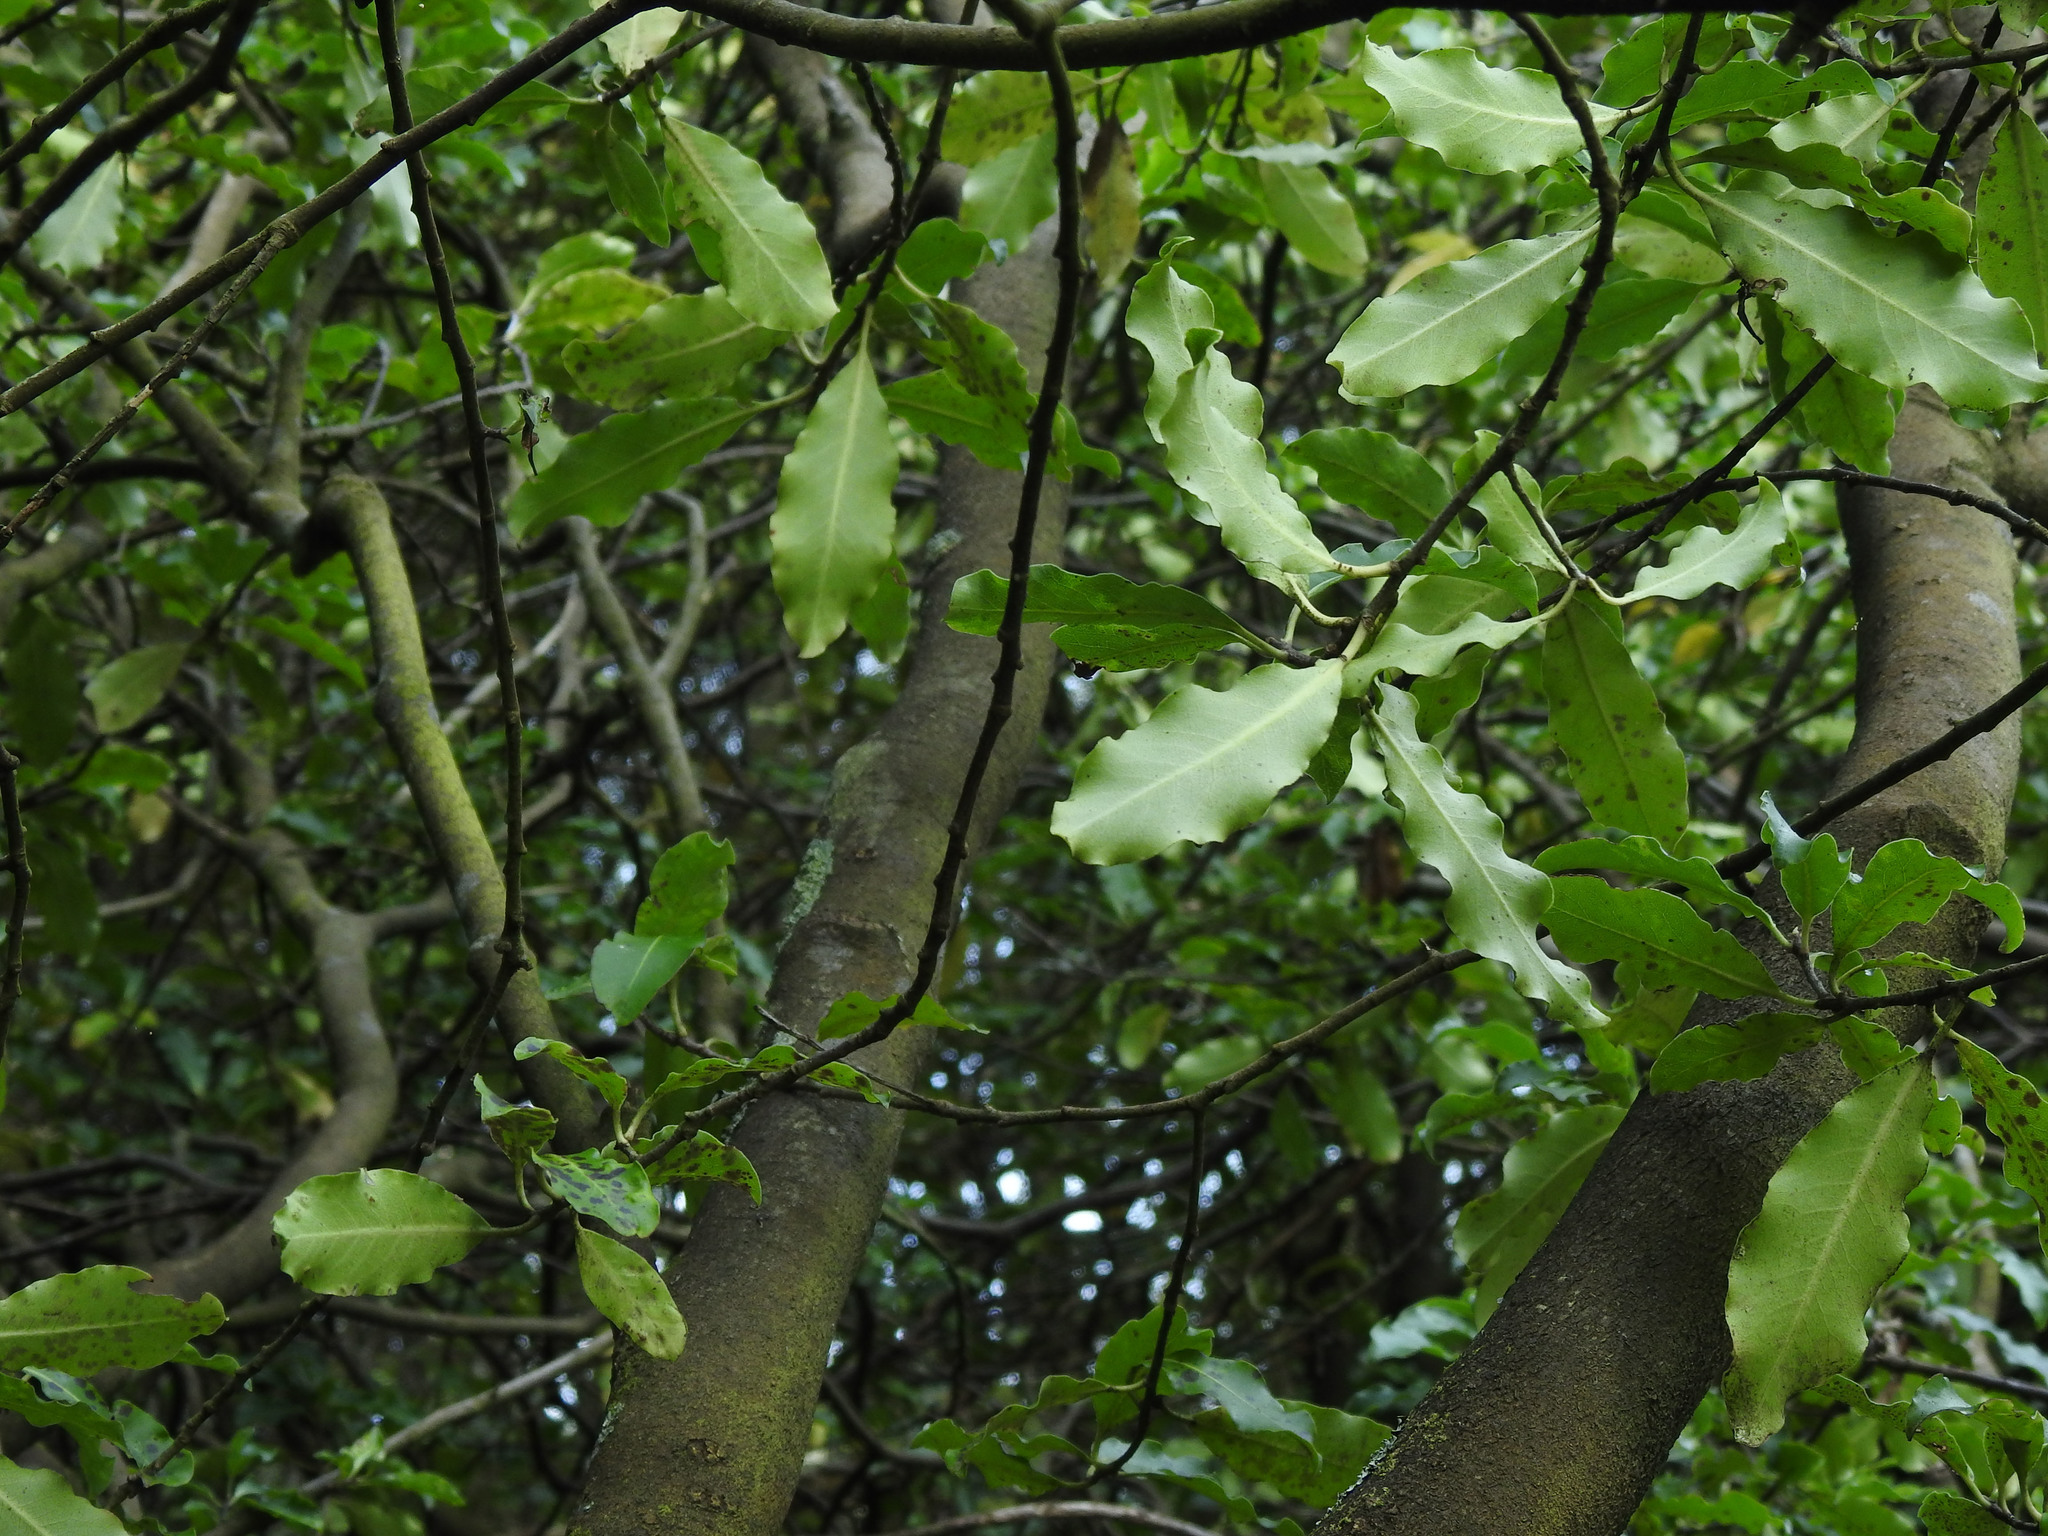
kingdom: Plantae
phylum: Tracheophyta
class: Magnoliopsida
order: Apiales
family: Pittosporaceae
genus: Pittosporum
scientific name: Pittosporum tenuifolium
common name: Kohuhu
